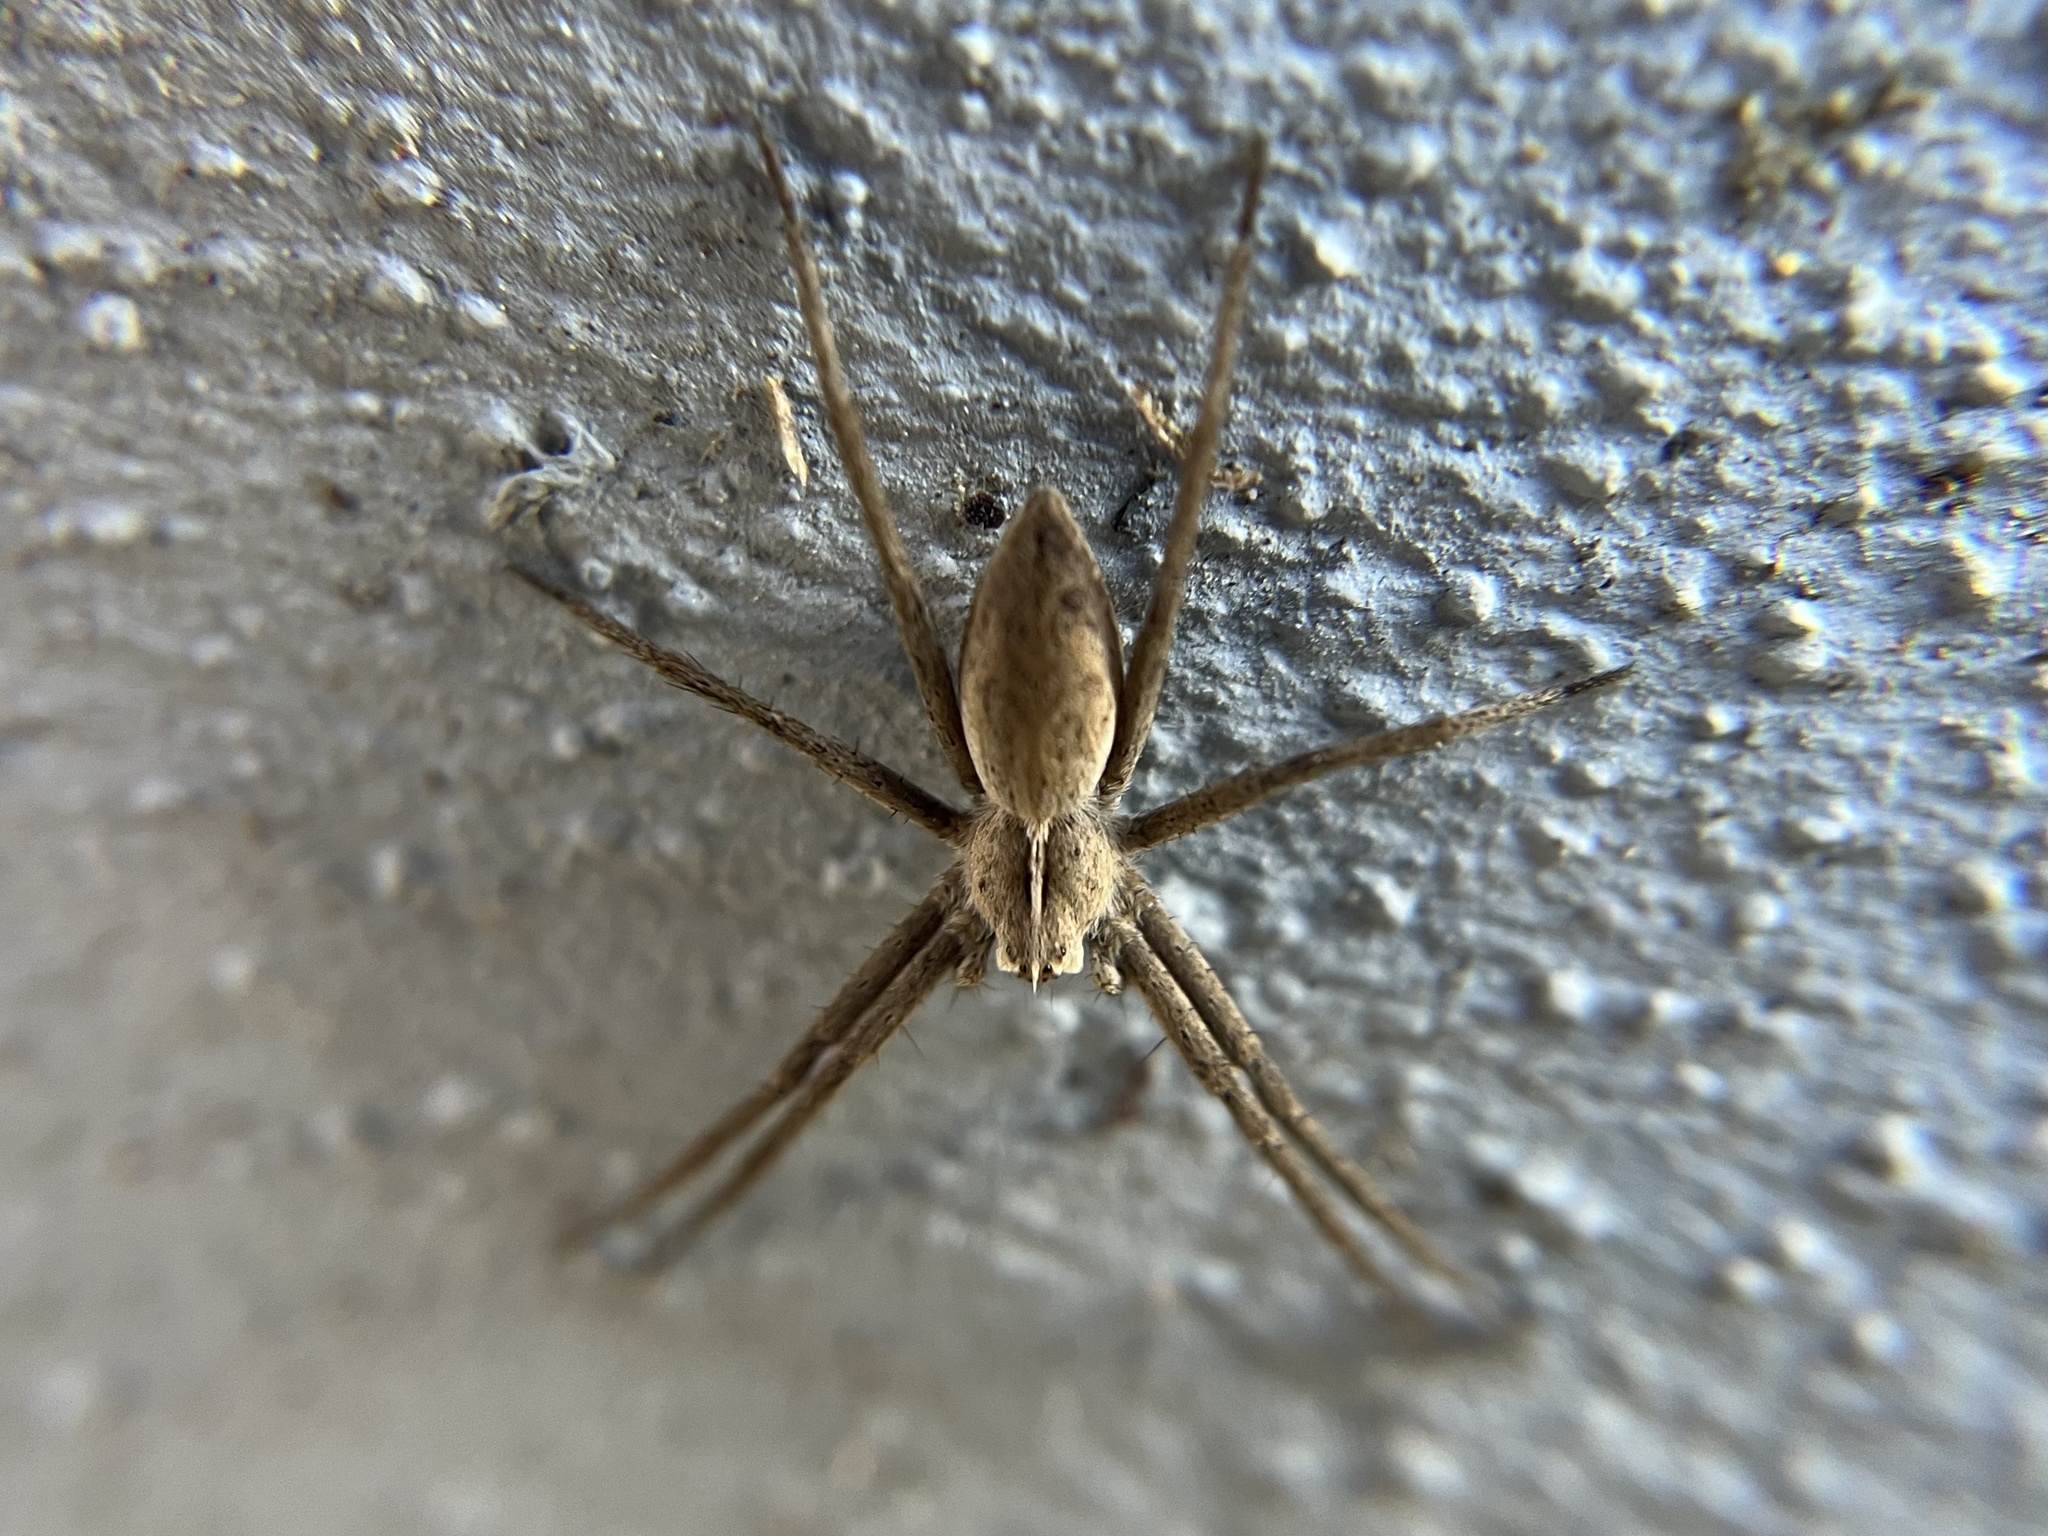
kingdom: Animalia
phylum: Arthropoda
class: Arachnida
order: Araneae
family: Pisauridae
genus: Pisaura
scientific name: Pisaura mirabilis
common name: Tent spider
